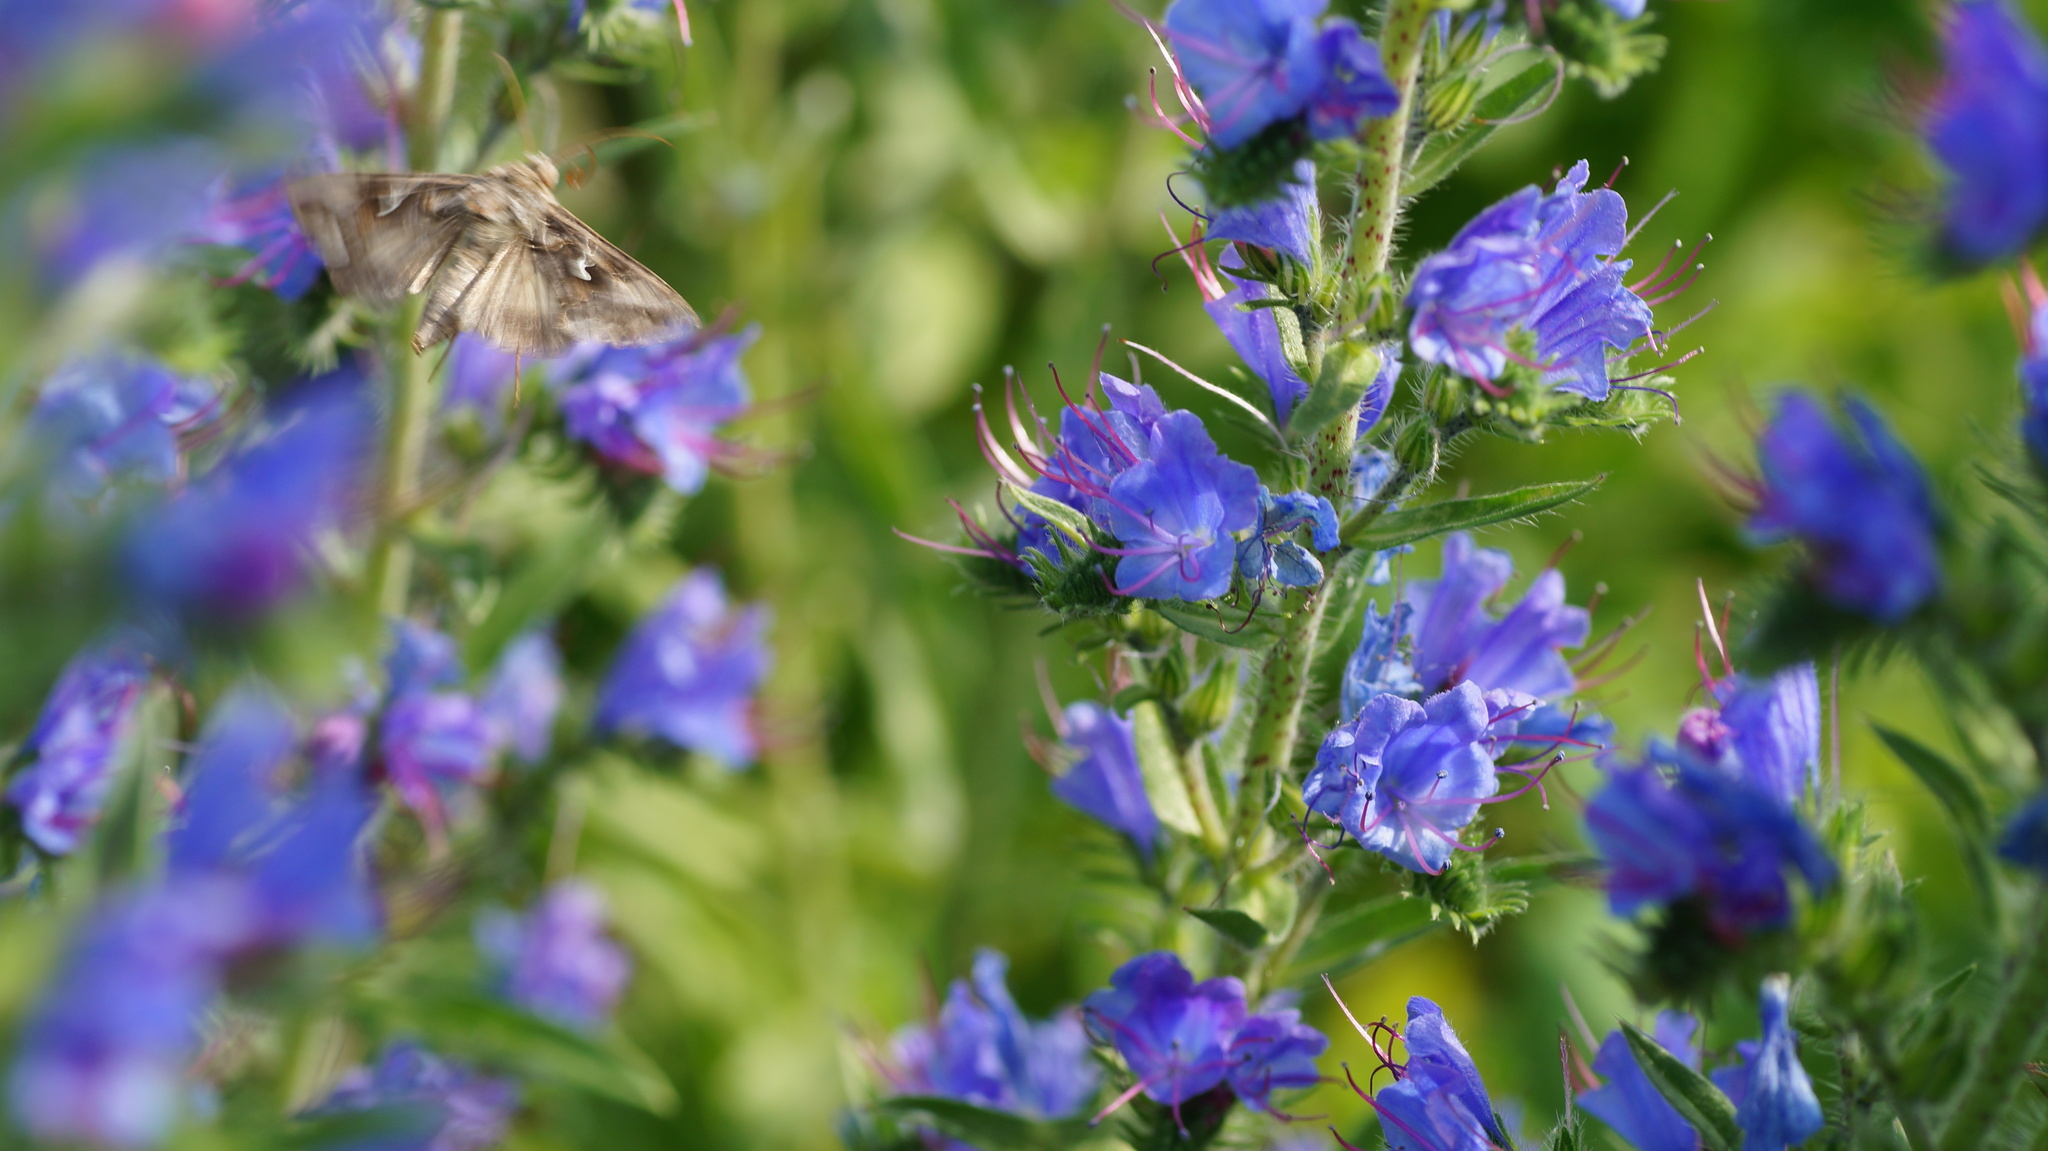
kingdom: Animalia
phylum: Arthropoda
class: Insecta
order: Lepidoptera
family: Noctuidae
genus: Autographa
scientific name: Autographa gamma
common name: Silver y
